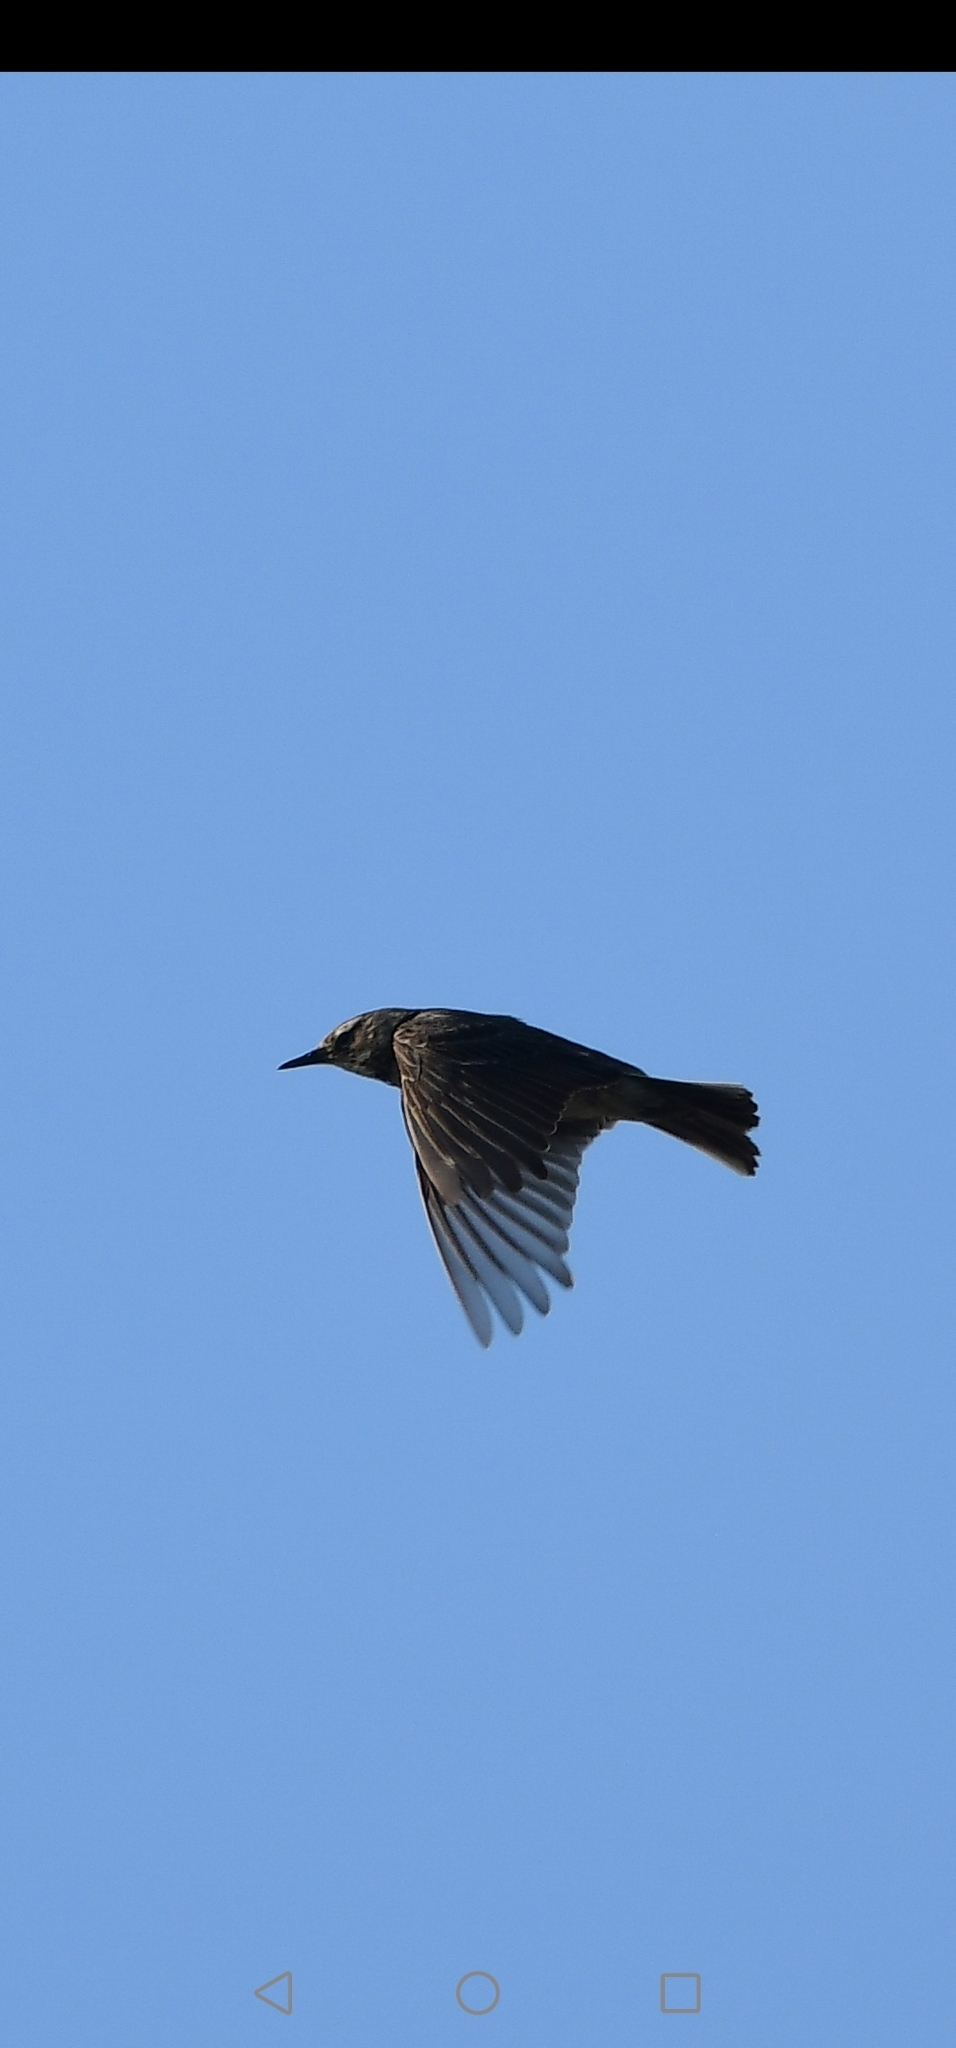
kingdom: Animalia
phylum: Chordata
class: Aves
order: Passeriformes
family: Motacillidae
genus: Anthus
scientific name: Anthus petrosus
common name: Eurasian rock pipit
